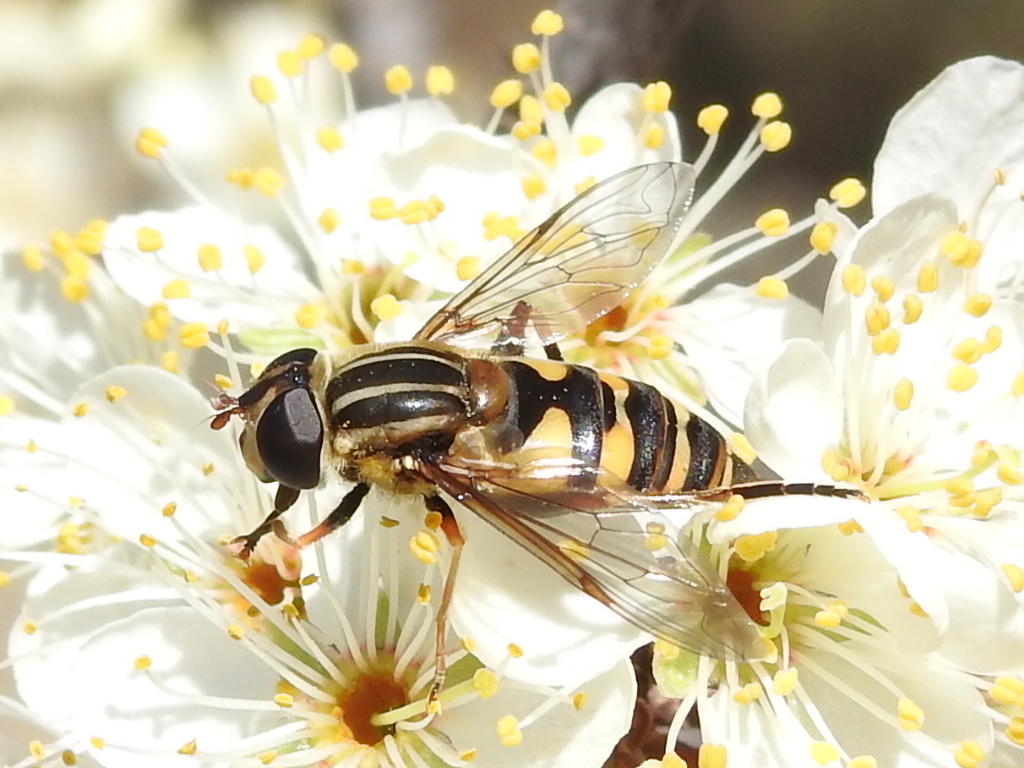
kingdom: Animalia
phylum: Arthropoda
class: Insecta
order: Diptera
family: Syrphidae
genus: Helophilus
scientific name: Helophilus fasciatus
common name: Narrow-headed marsh fly
